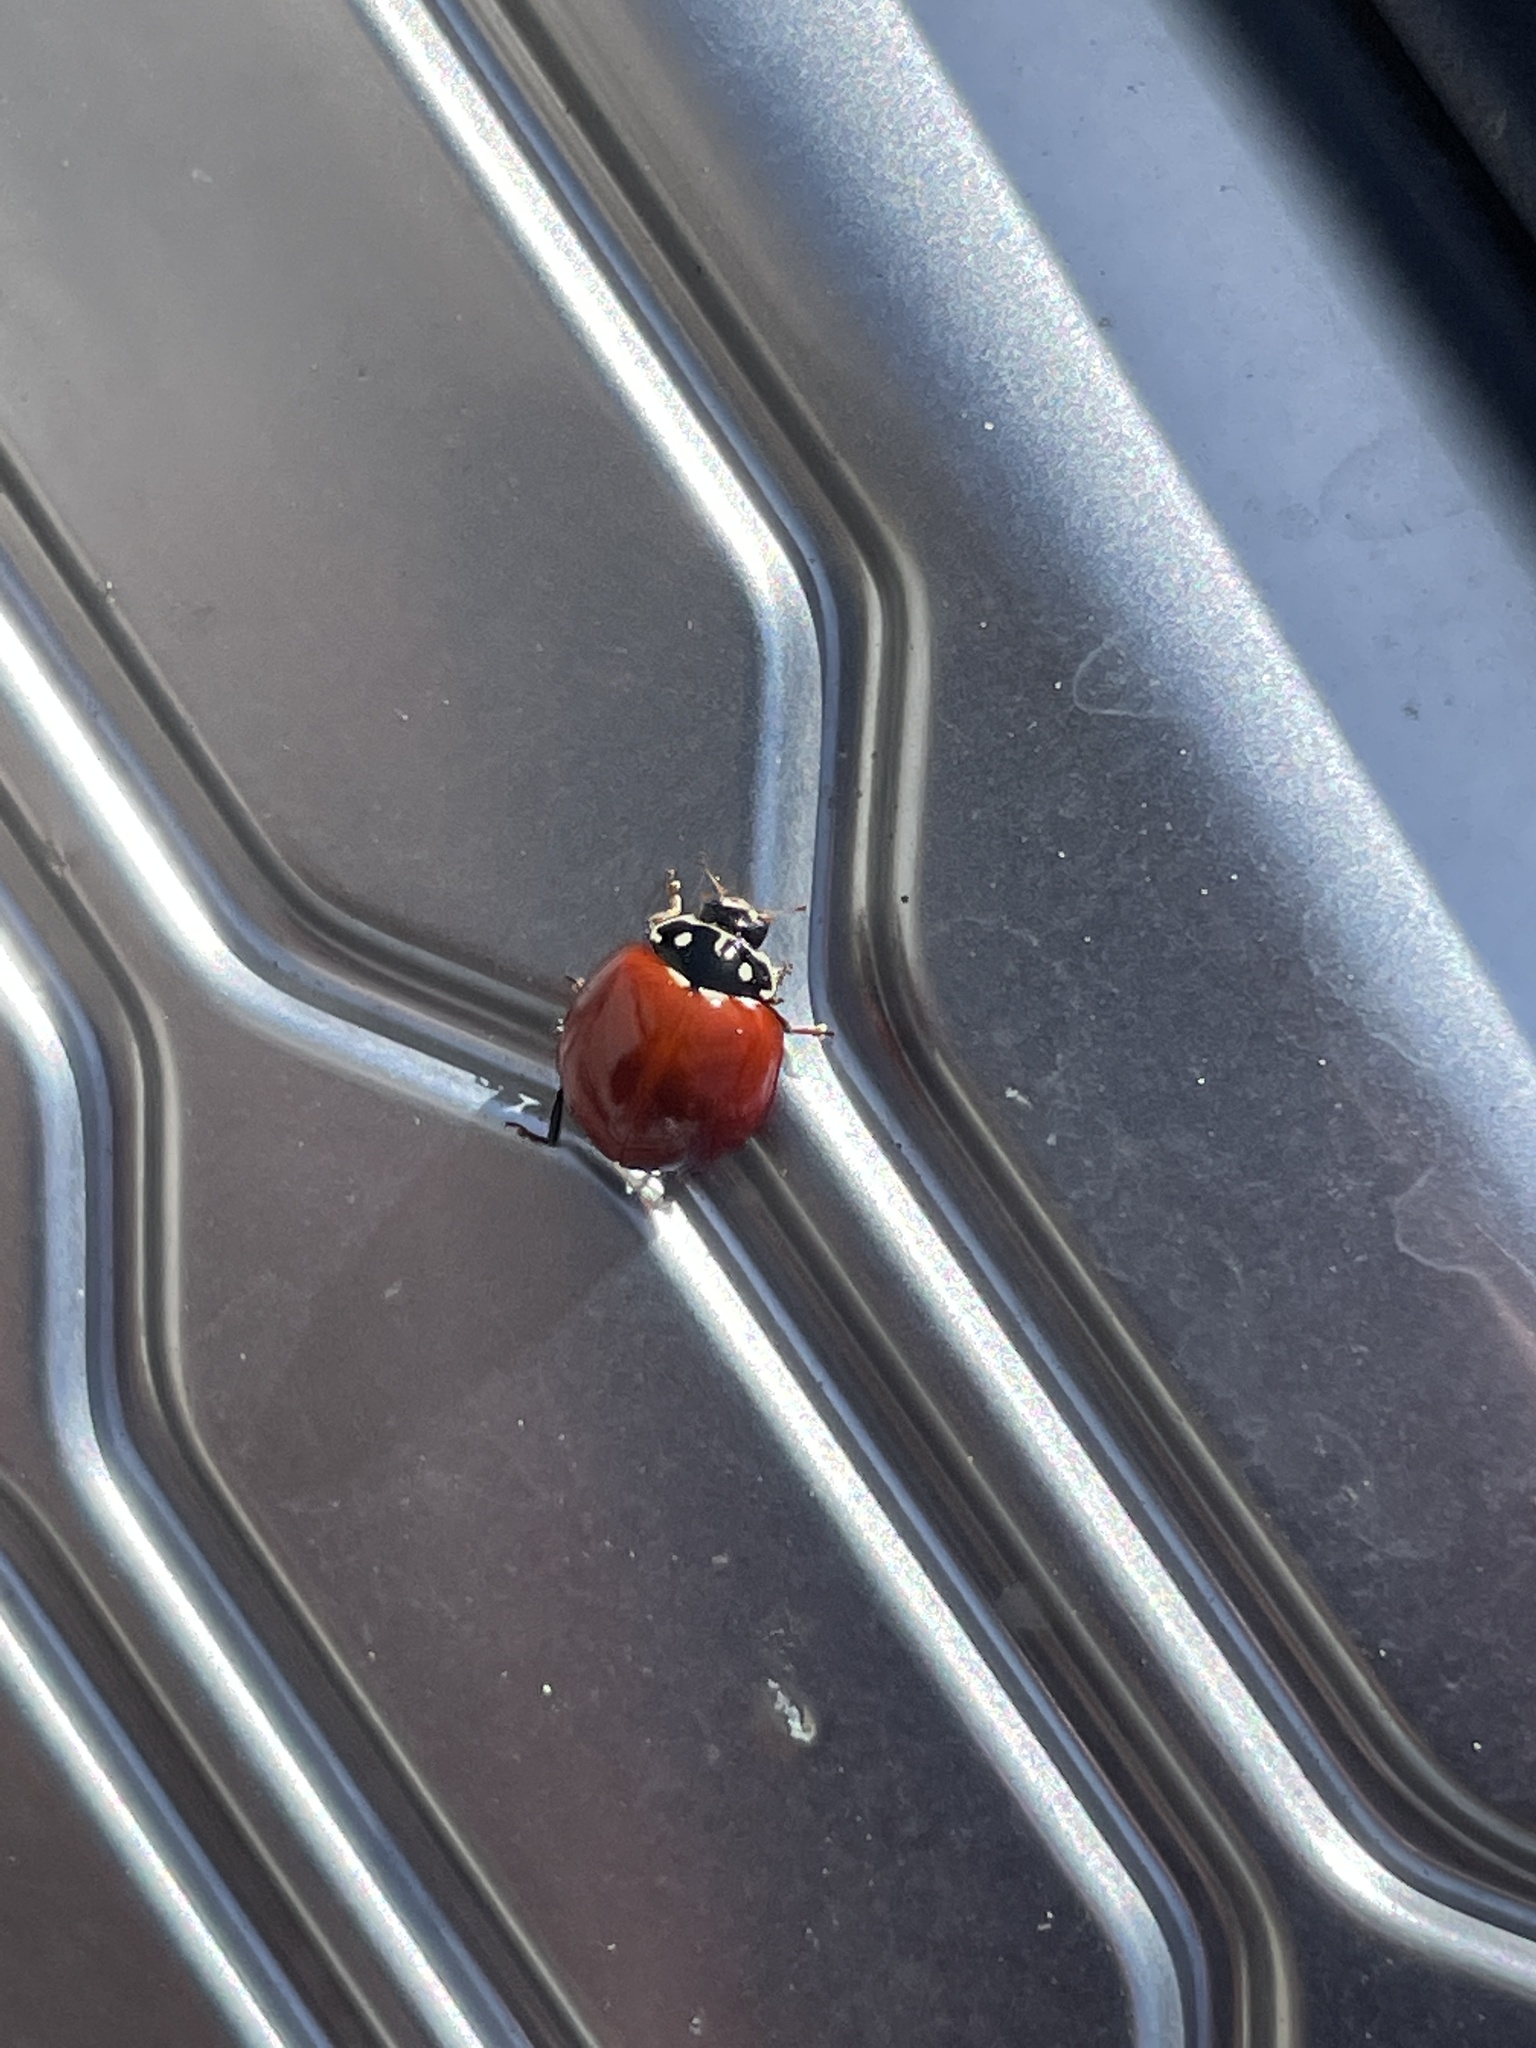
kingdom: Animalia
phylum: Arthropoda
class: Insecta
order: Coleoptera
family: Coccinellidae
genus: Cycloneda
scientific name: Cycloneda sanguinea
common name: Ladybird beetle
